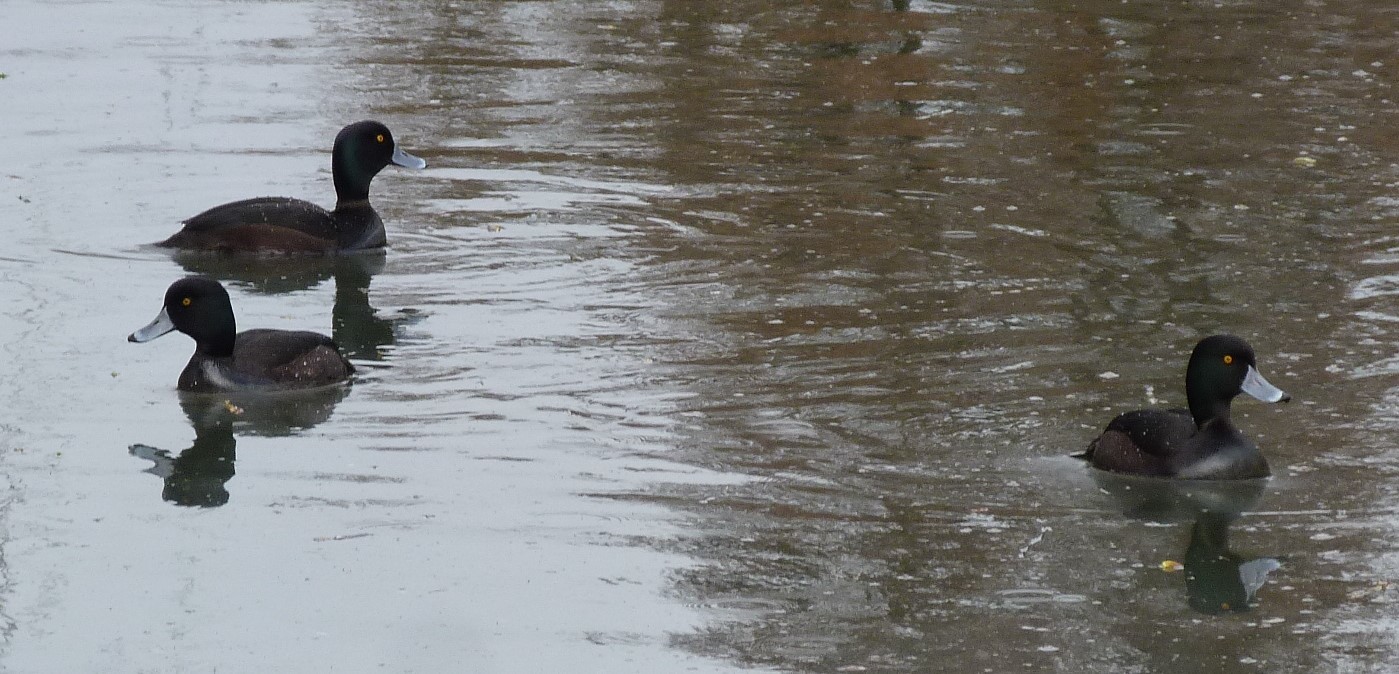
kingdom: Animalia
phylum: Chordata
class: Aves
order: Anseriformes
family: Anatidae
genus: Aythya
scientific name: Aythya novaeseelandiae
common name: New zealand scaup
